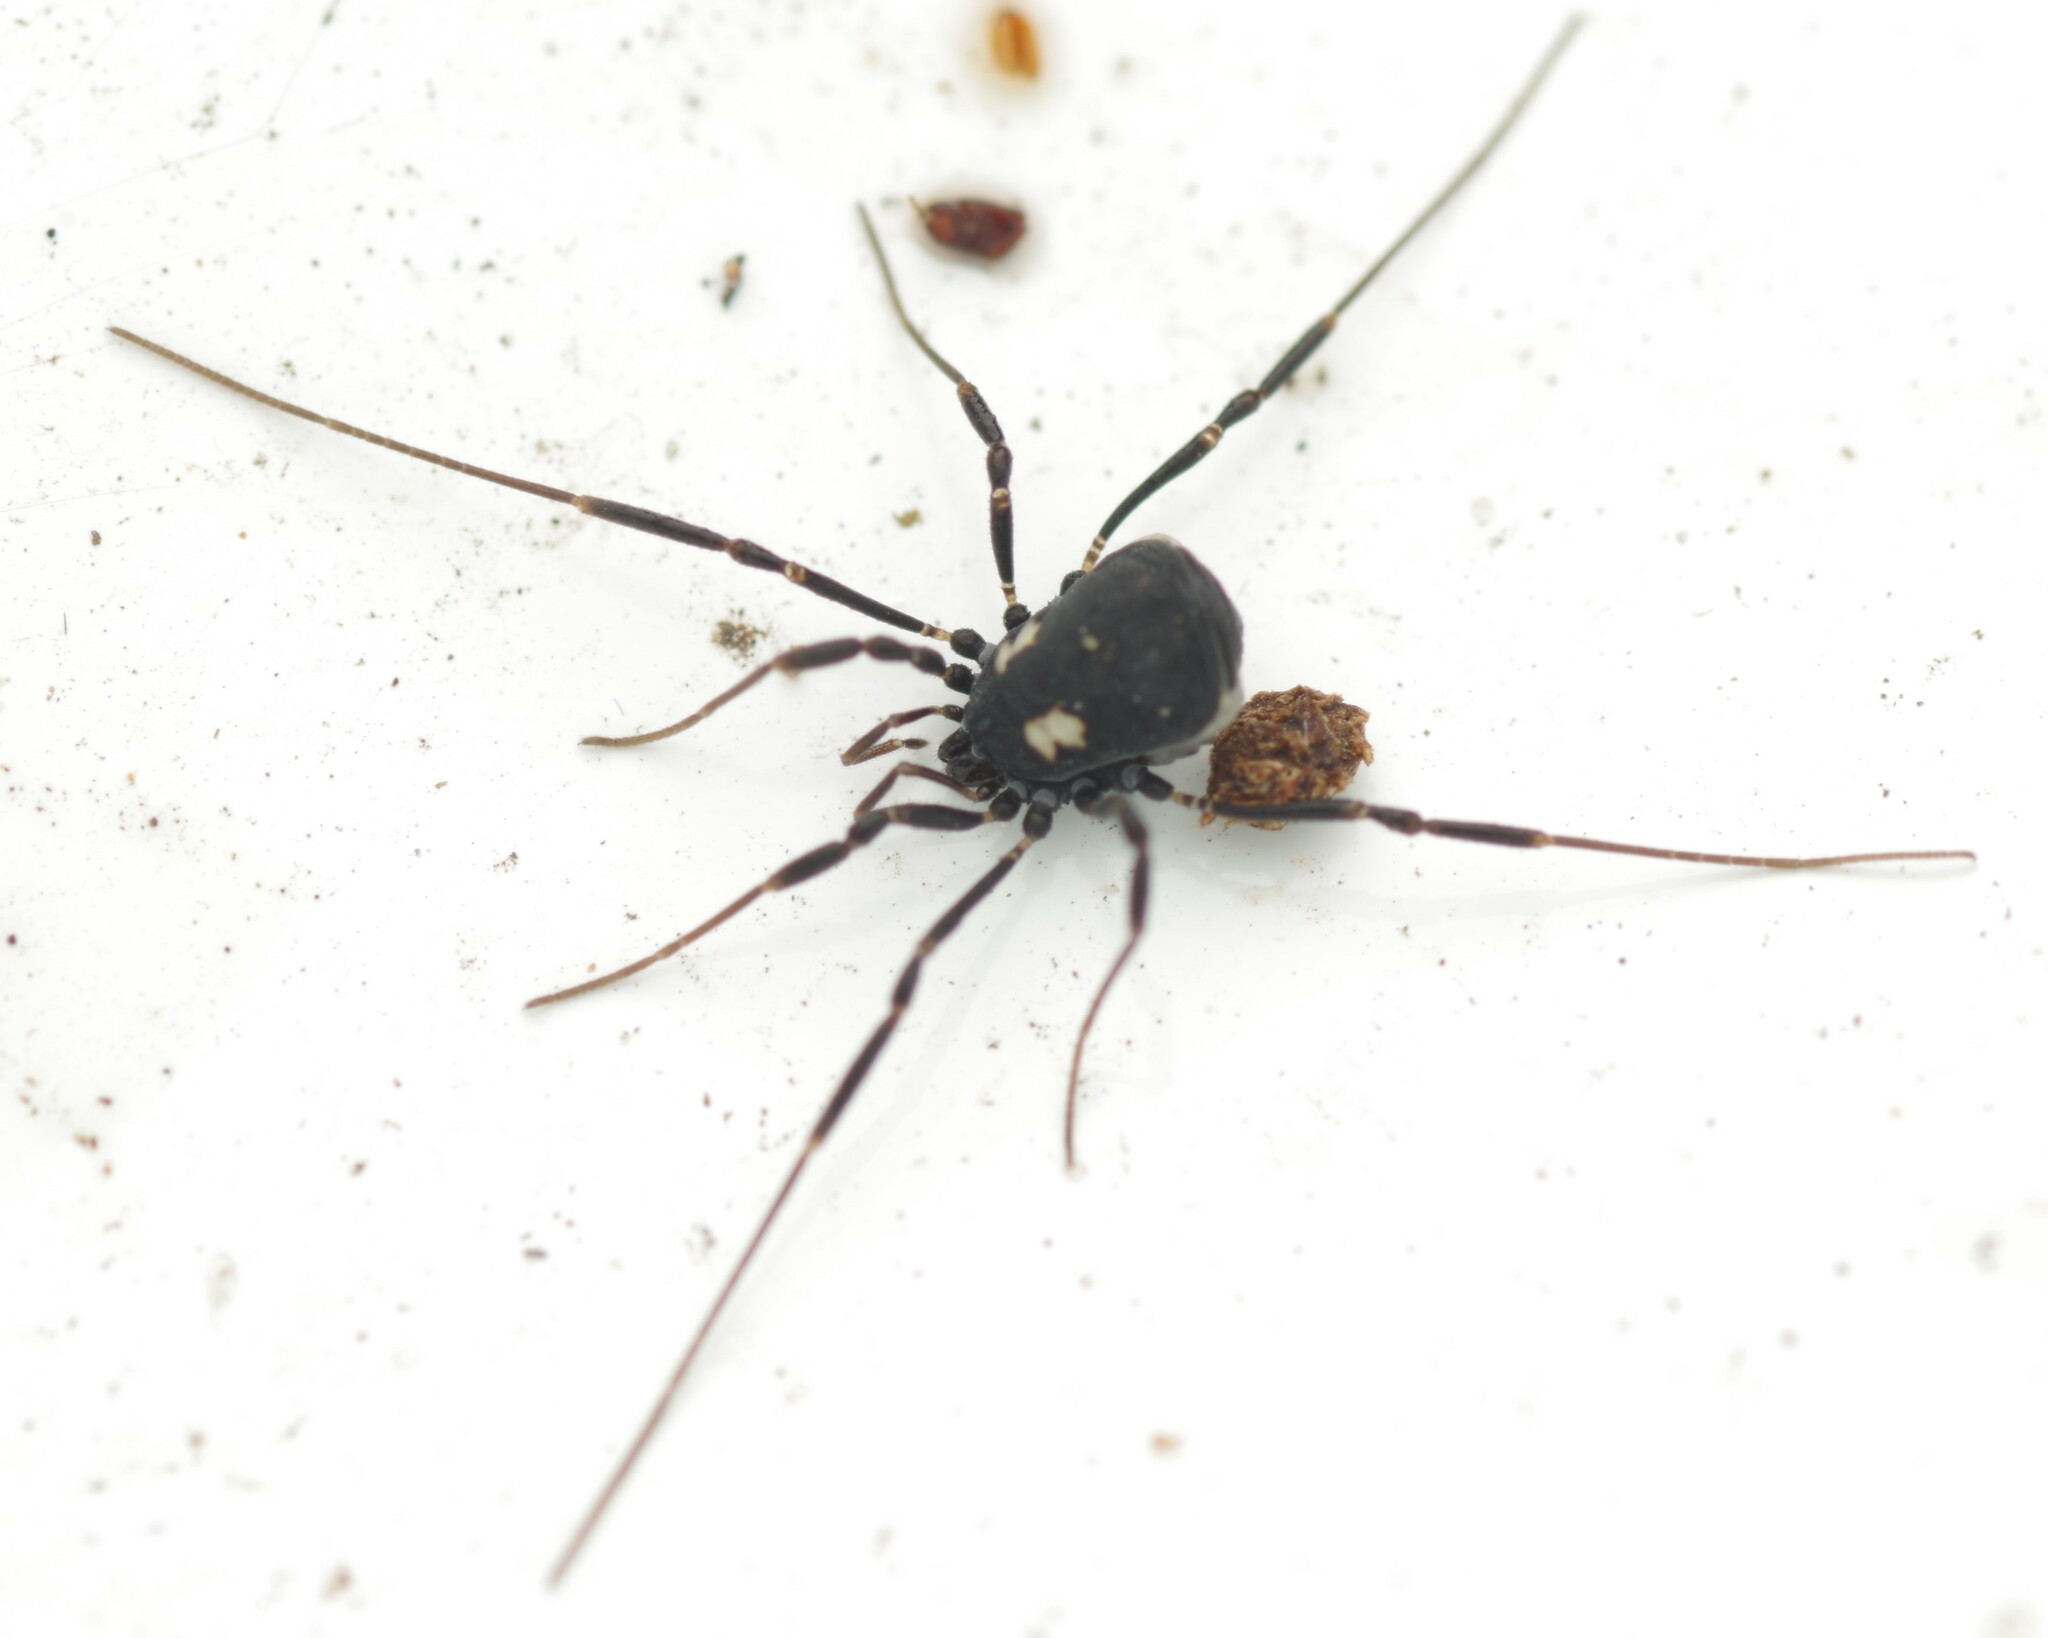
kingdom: Animalia
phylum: Arthropoda
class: Arachnida
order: Opiliones
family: Nemastomatidae
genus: Nemastoma
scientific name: Nemastoma bimaculatum
